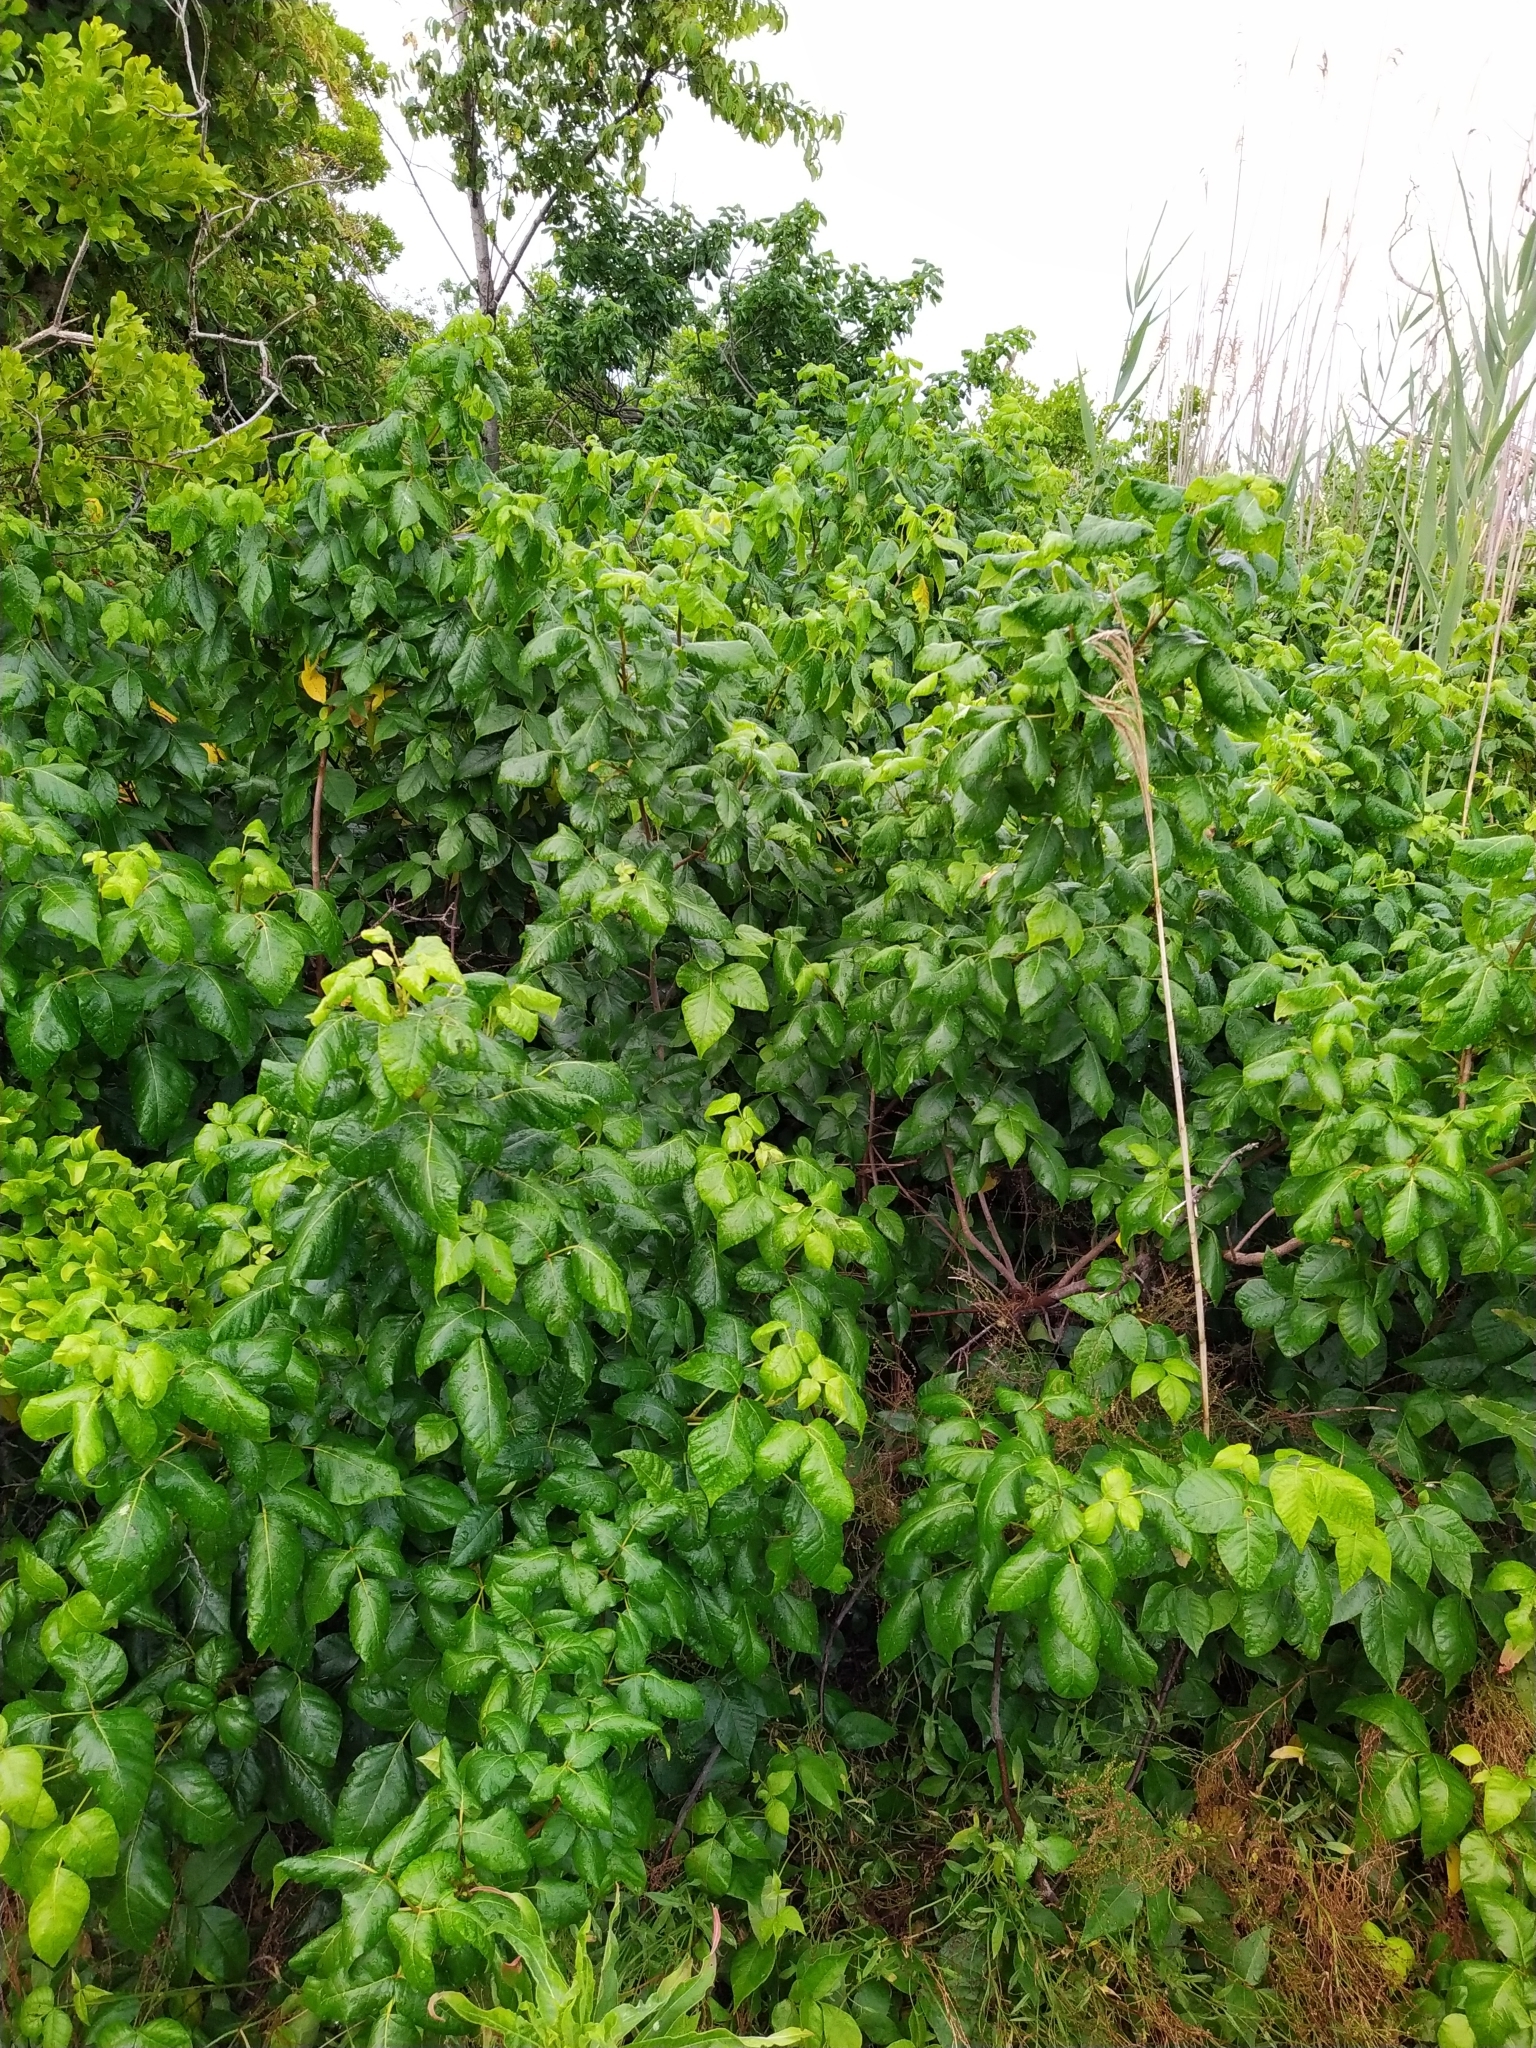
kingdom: Plantae
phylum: Tracheophyta
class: Magnoliopsida
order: Sapindales
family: Anacardiaceae
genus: Toxicodendron
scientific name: Toxicodendron radicans
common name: Poison ivy
